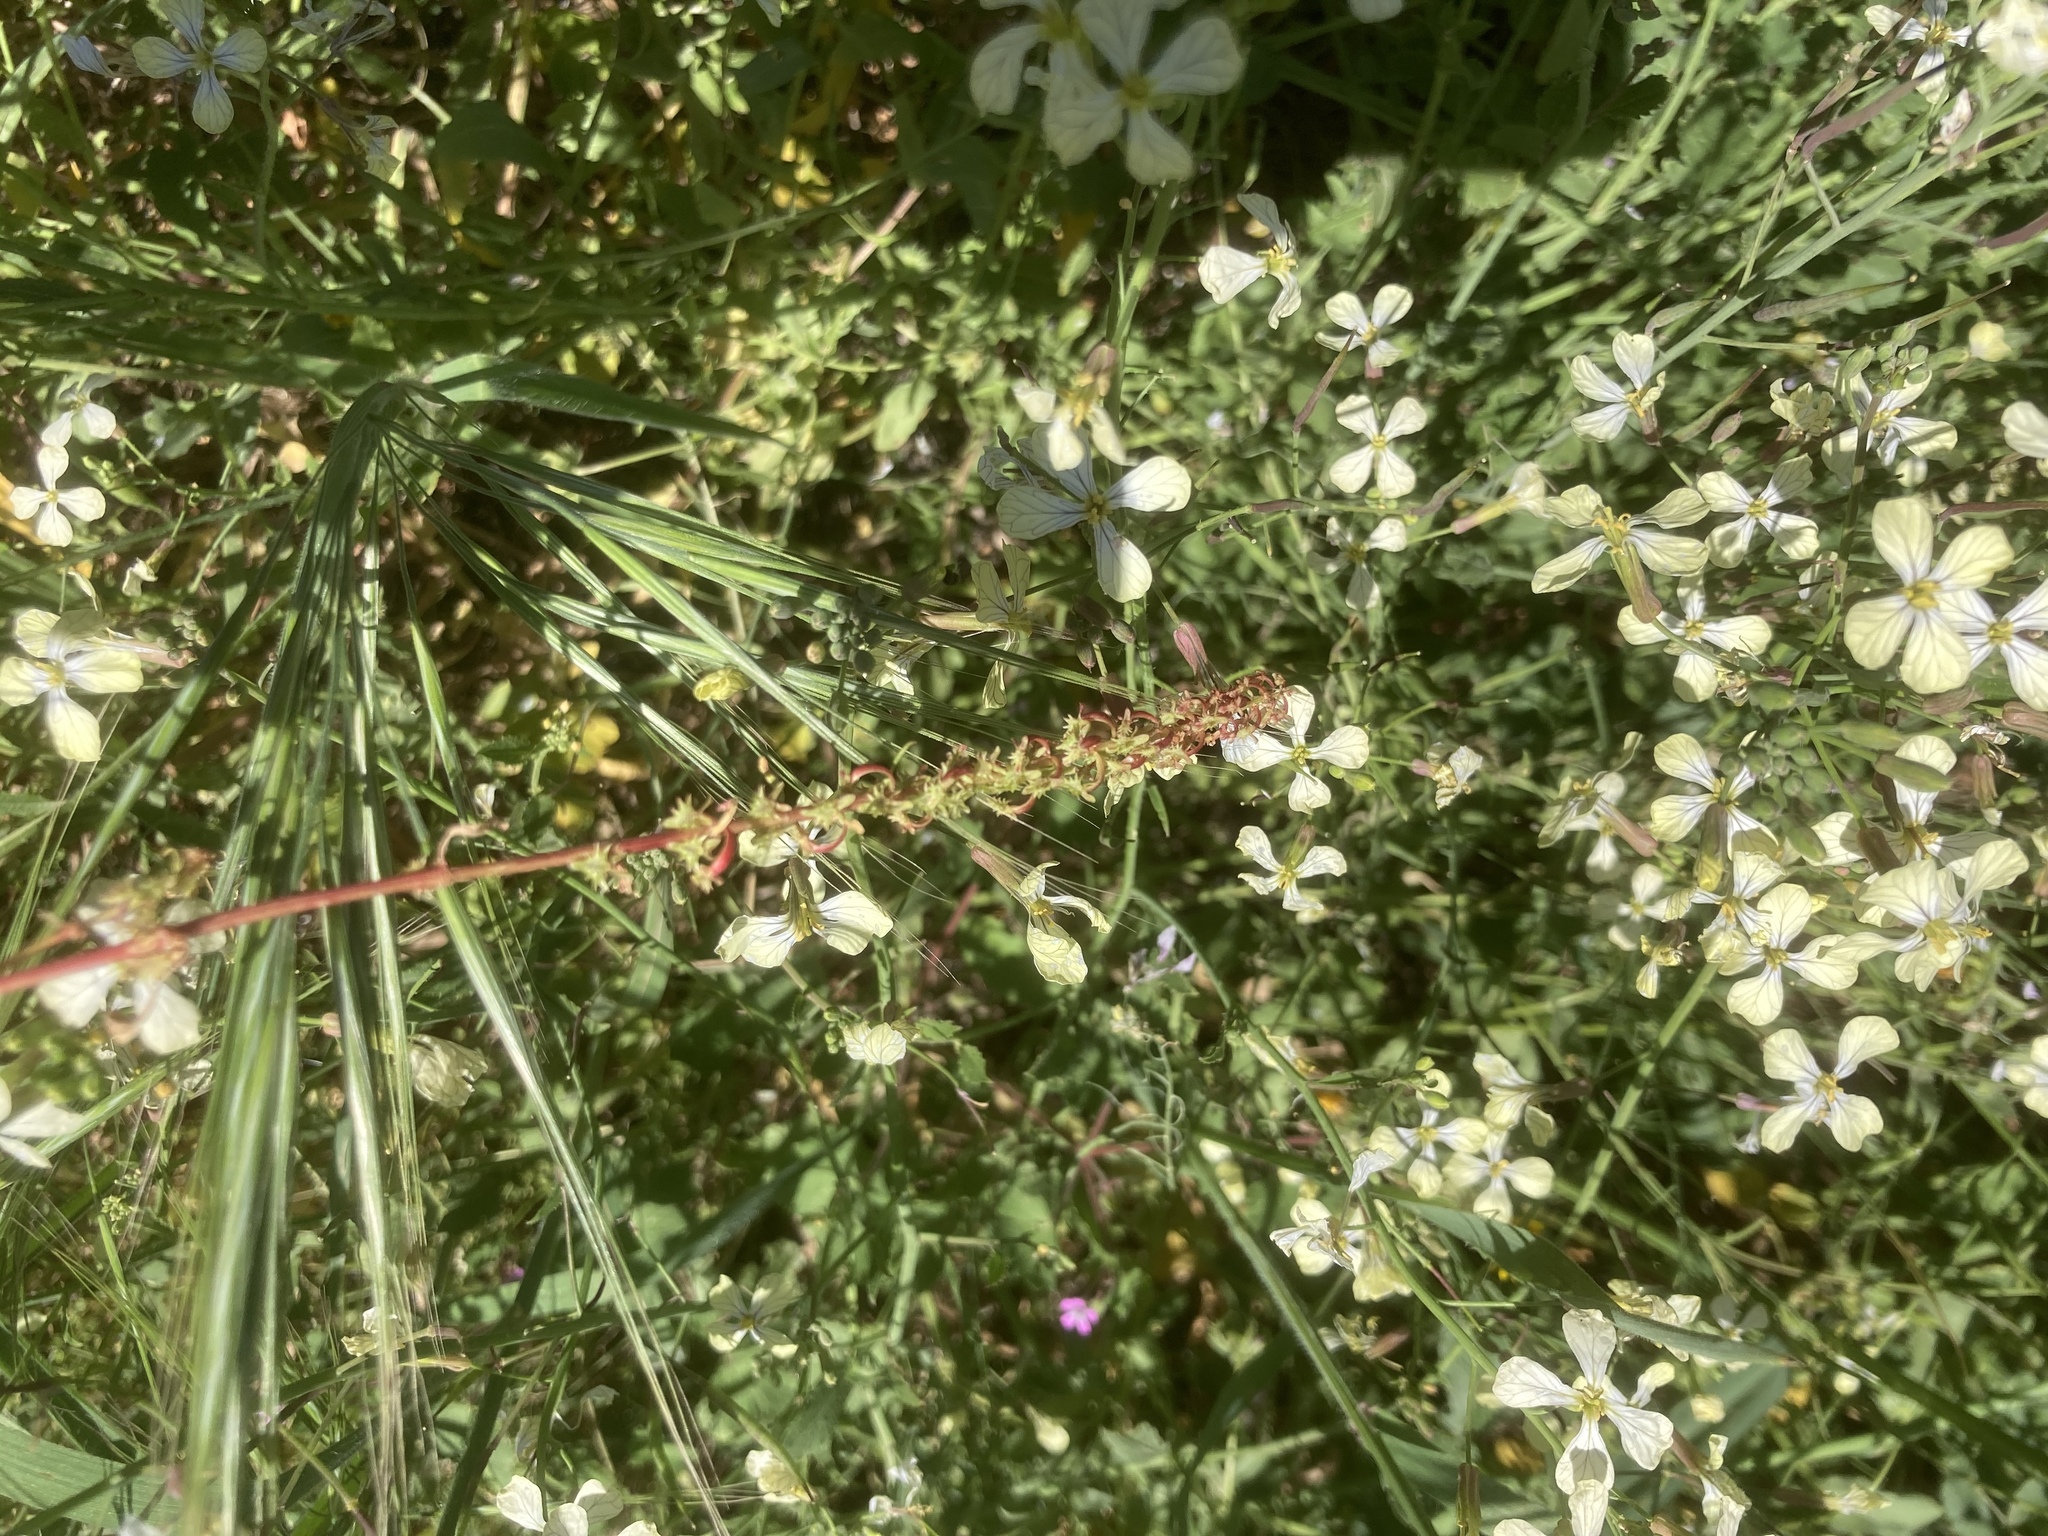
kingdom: Plantae
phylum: Tracheophyta
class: Magnoliopsida
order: Brassicales
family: Brassicaceae
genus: Raphanus
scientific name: Raphanus raphanistrum
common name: Wild radish
